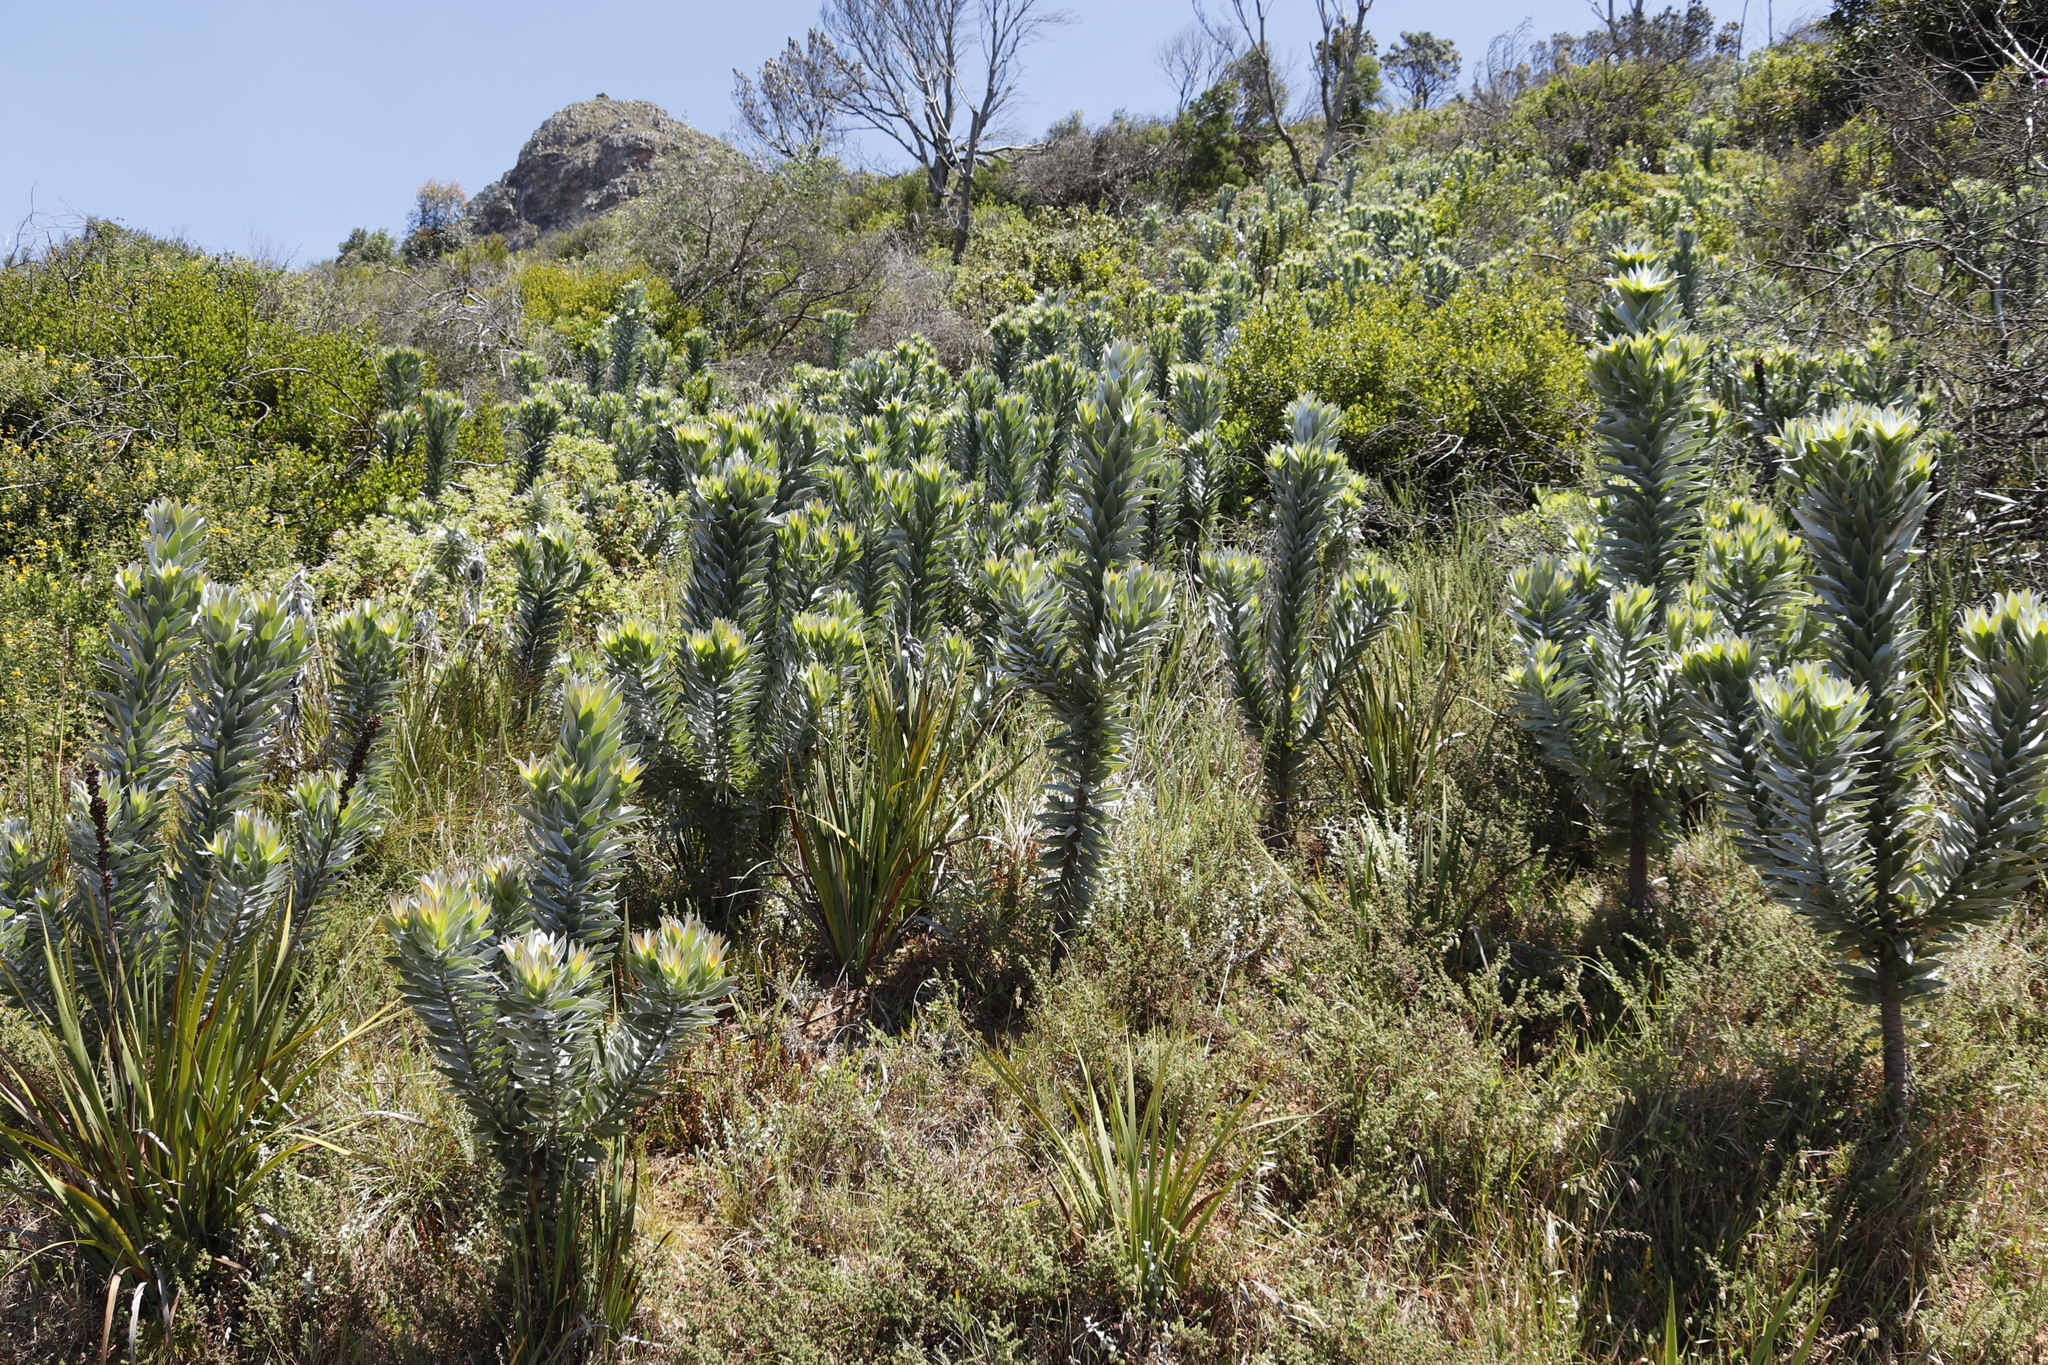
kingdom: Plantae
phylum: Tracheophyta
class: Magnoliopsida
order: Proteales
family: Proteaceae
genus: Leucadendron
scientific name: Leucadendron argenteum
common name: Cape silver tree
